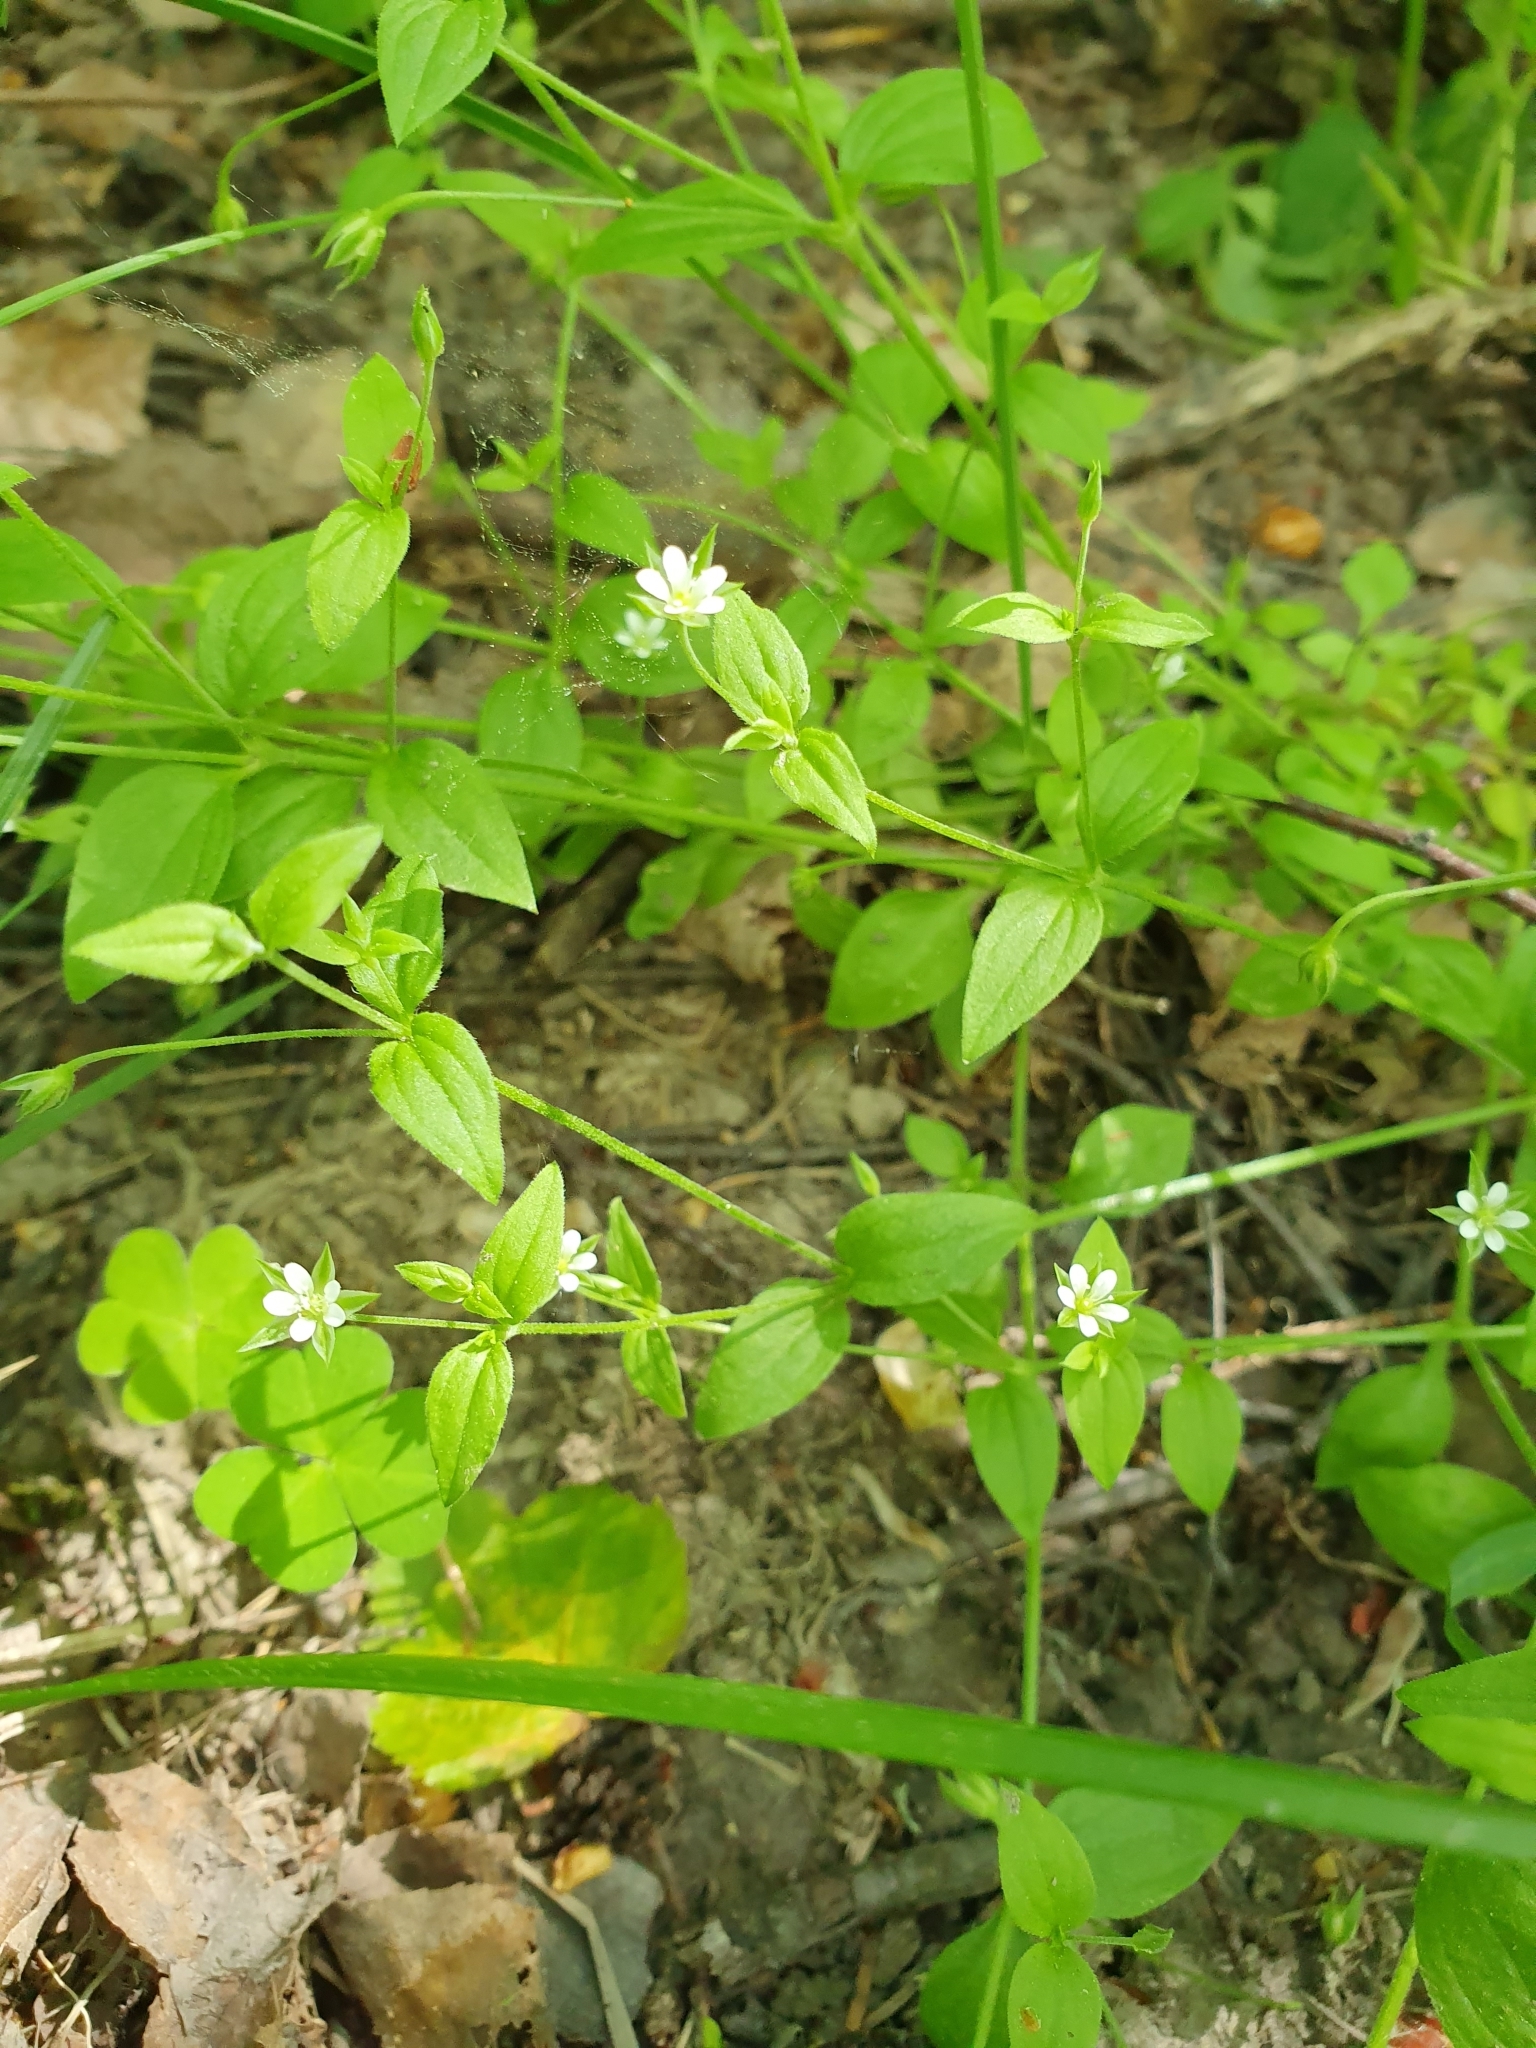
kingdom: Plantae
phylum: Tracheophyta
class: Magnoliopsida
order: Caryophyllales
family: Caryophyllaceae
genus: Moehringia
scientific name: Moehringia trinervia
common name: Three-nerved sandwort
